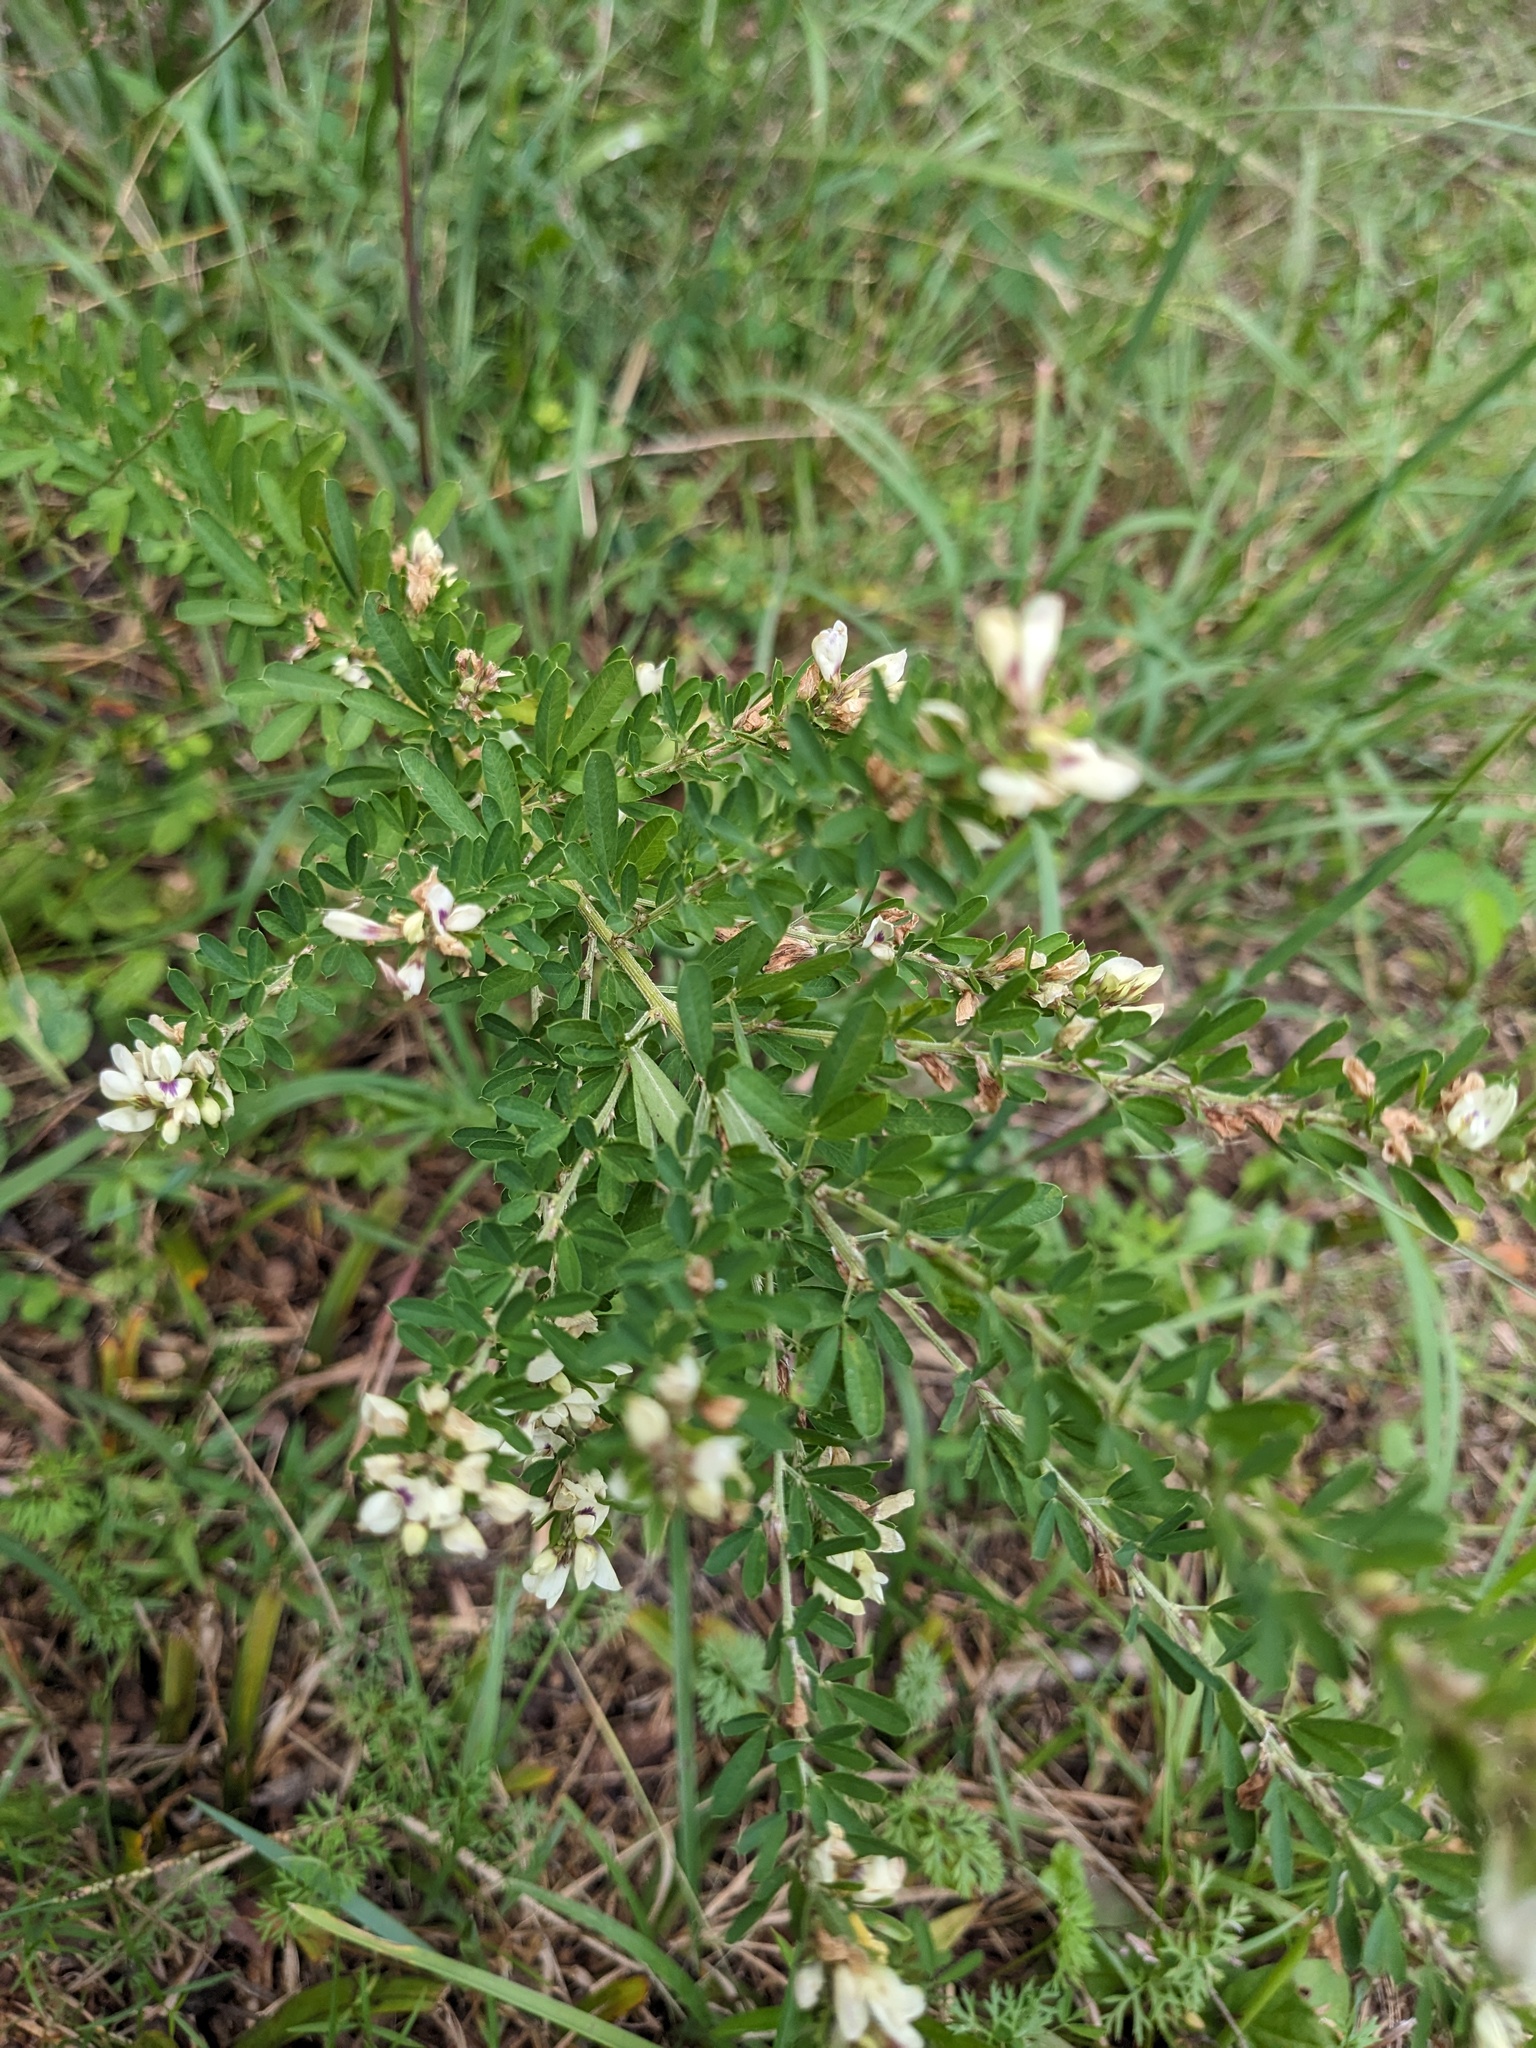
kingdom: Plantae
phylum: Tracheophyta
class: Magnoliopsida
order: Fabales
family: Fabaceae
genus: Lespedeza
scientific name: Lespedeza cuneata
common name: Chinese bush-clover
